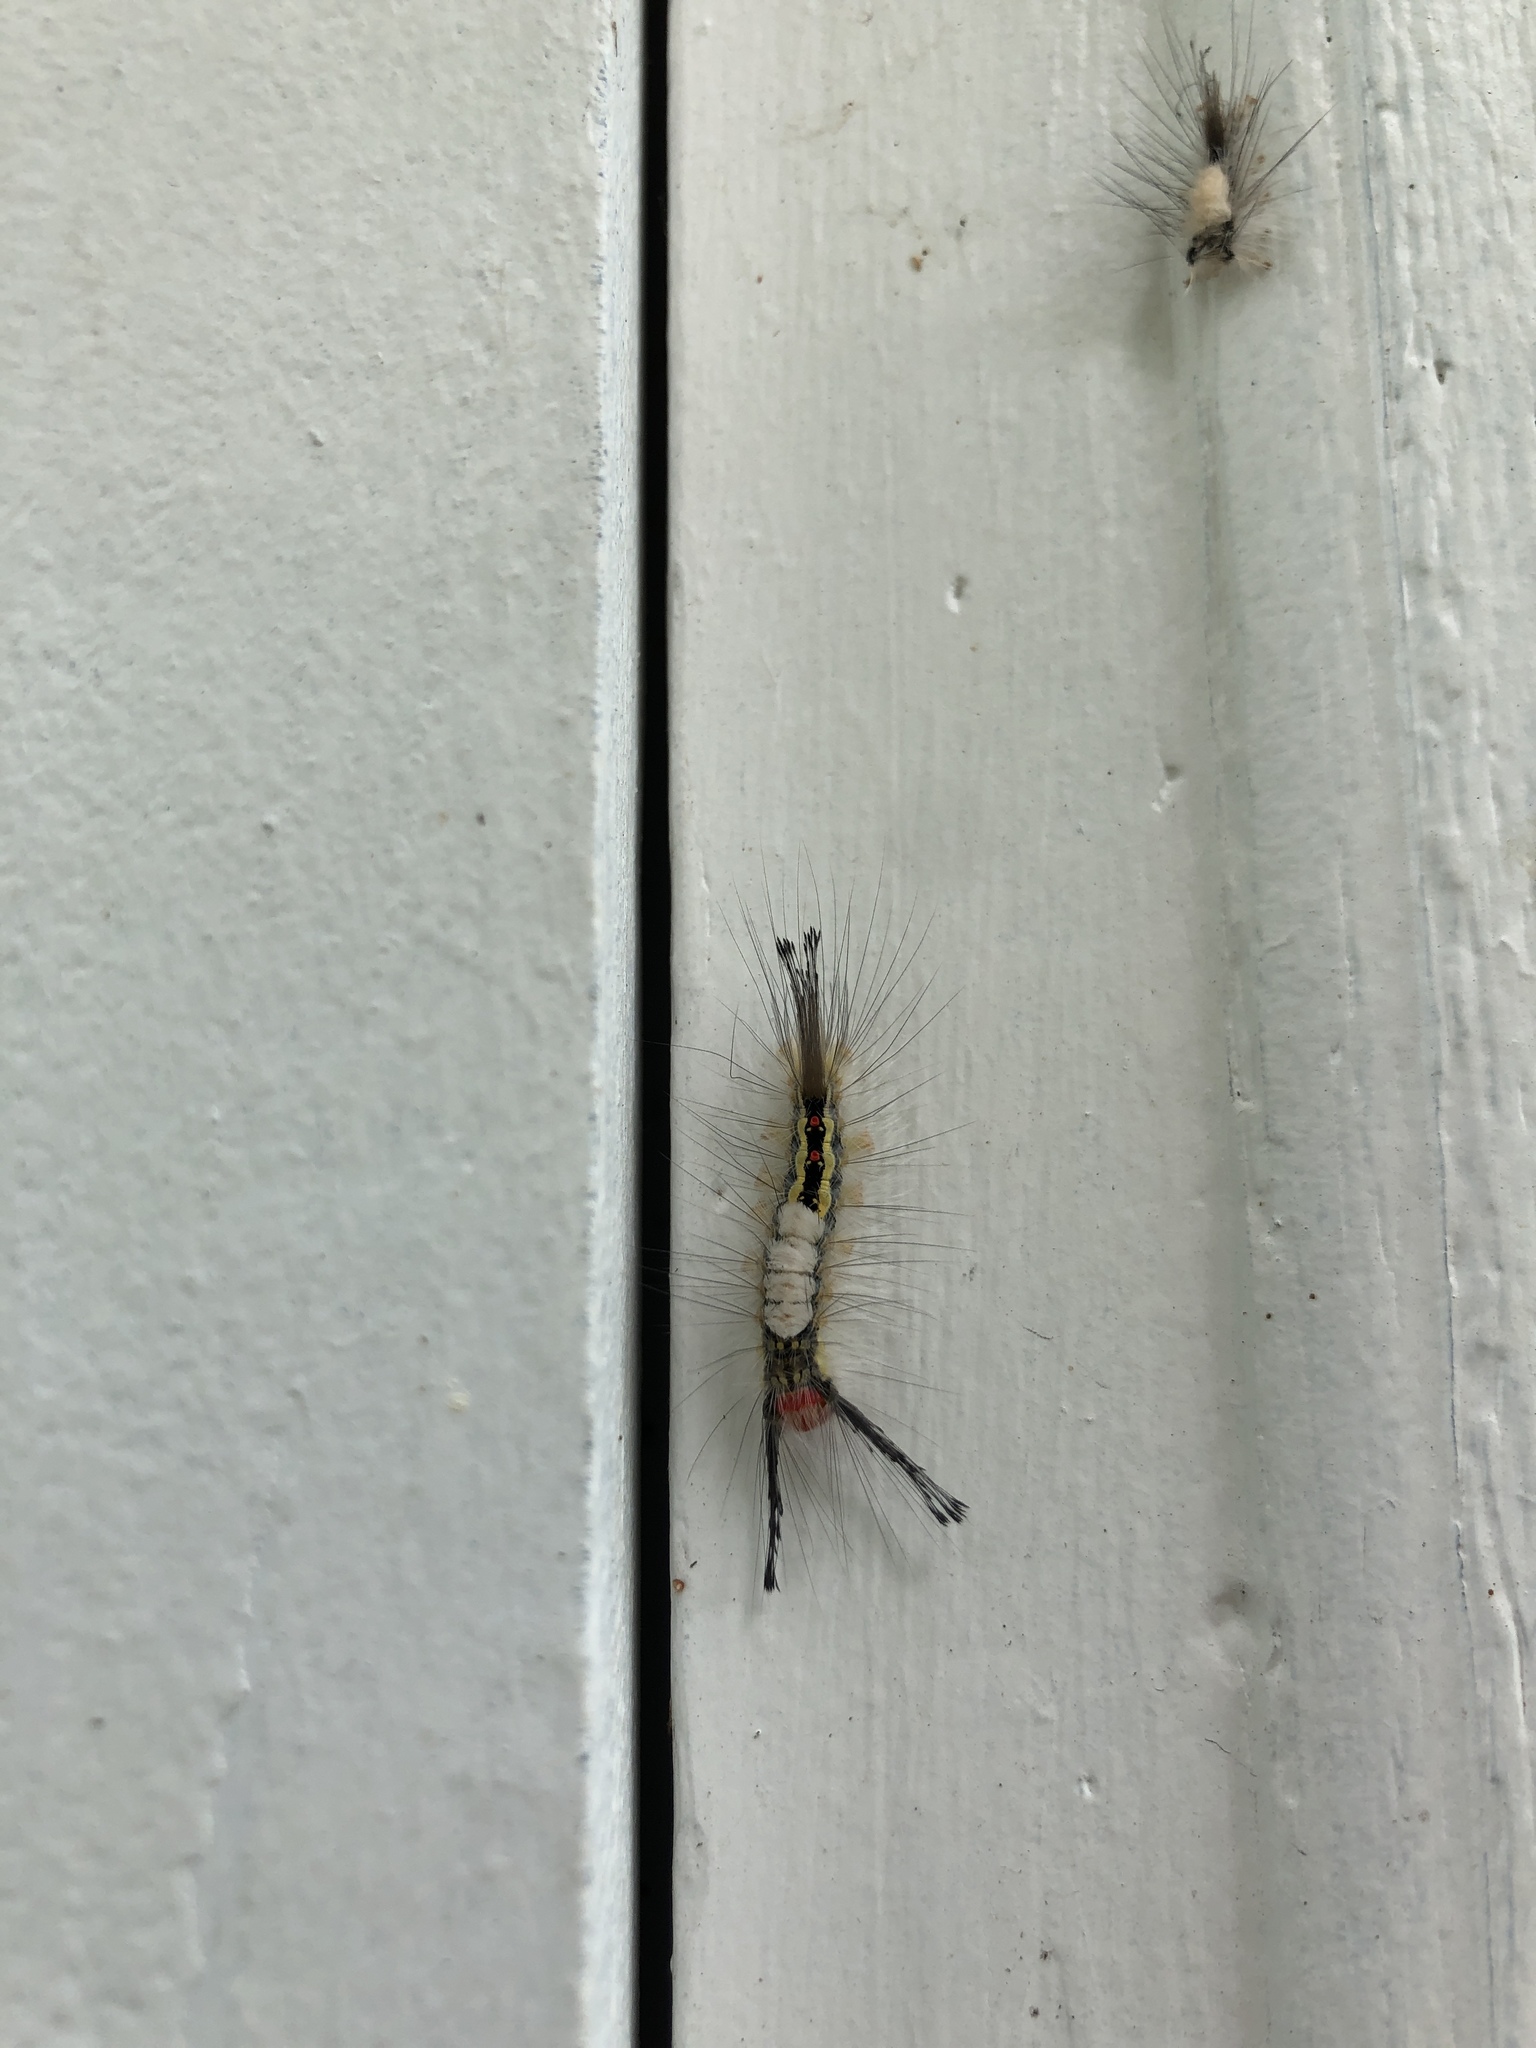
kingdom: Animalia
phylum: Arthropoda
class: Insecta
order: Lepidoptera
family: Erebidae
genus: Orgyia
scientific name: Orgyia leucostigma
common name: White-marked tussock moth
